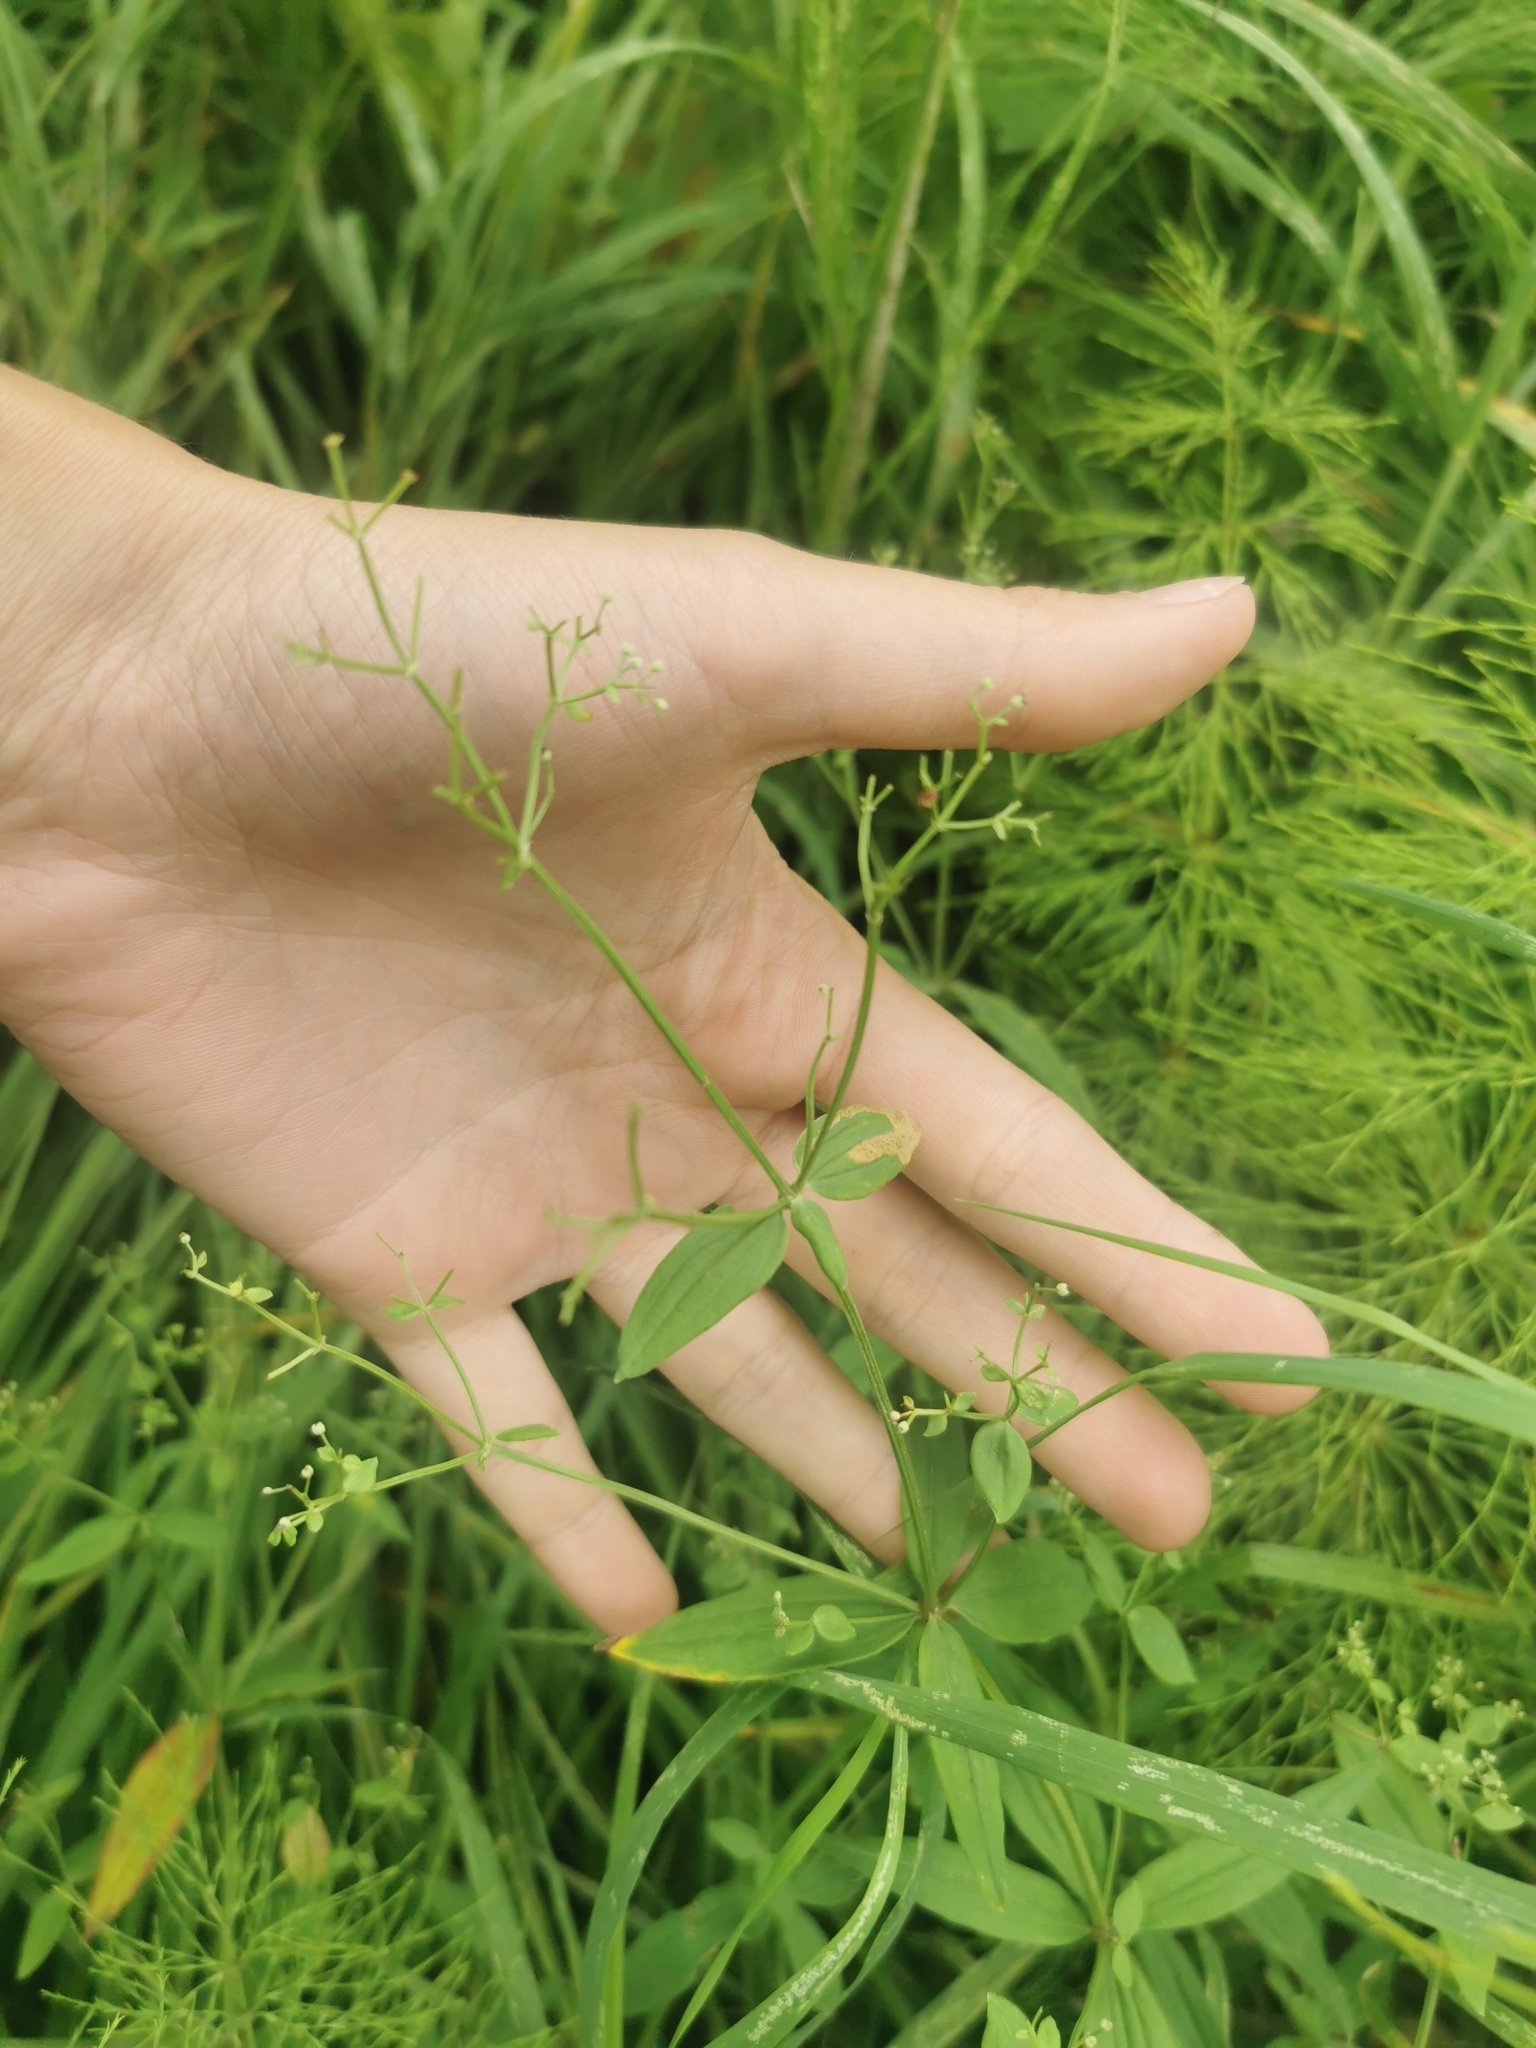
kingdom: Plantae
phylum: Tracheophyta
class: Magnoliopsida
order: Gentianales
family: Rubiaceae
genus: Galium
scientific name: Galium boreale
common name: Northern bedstraw
